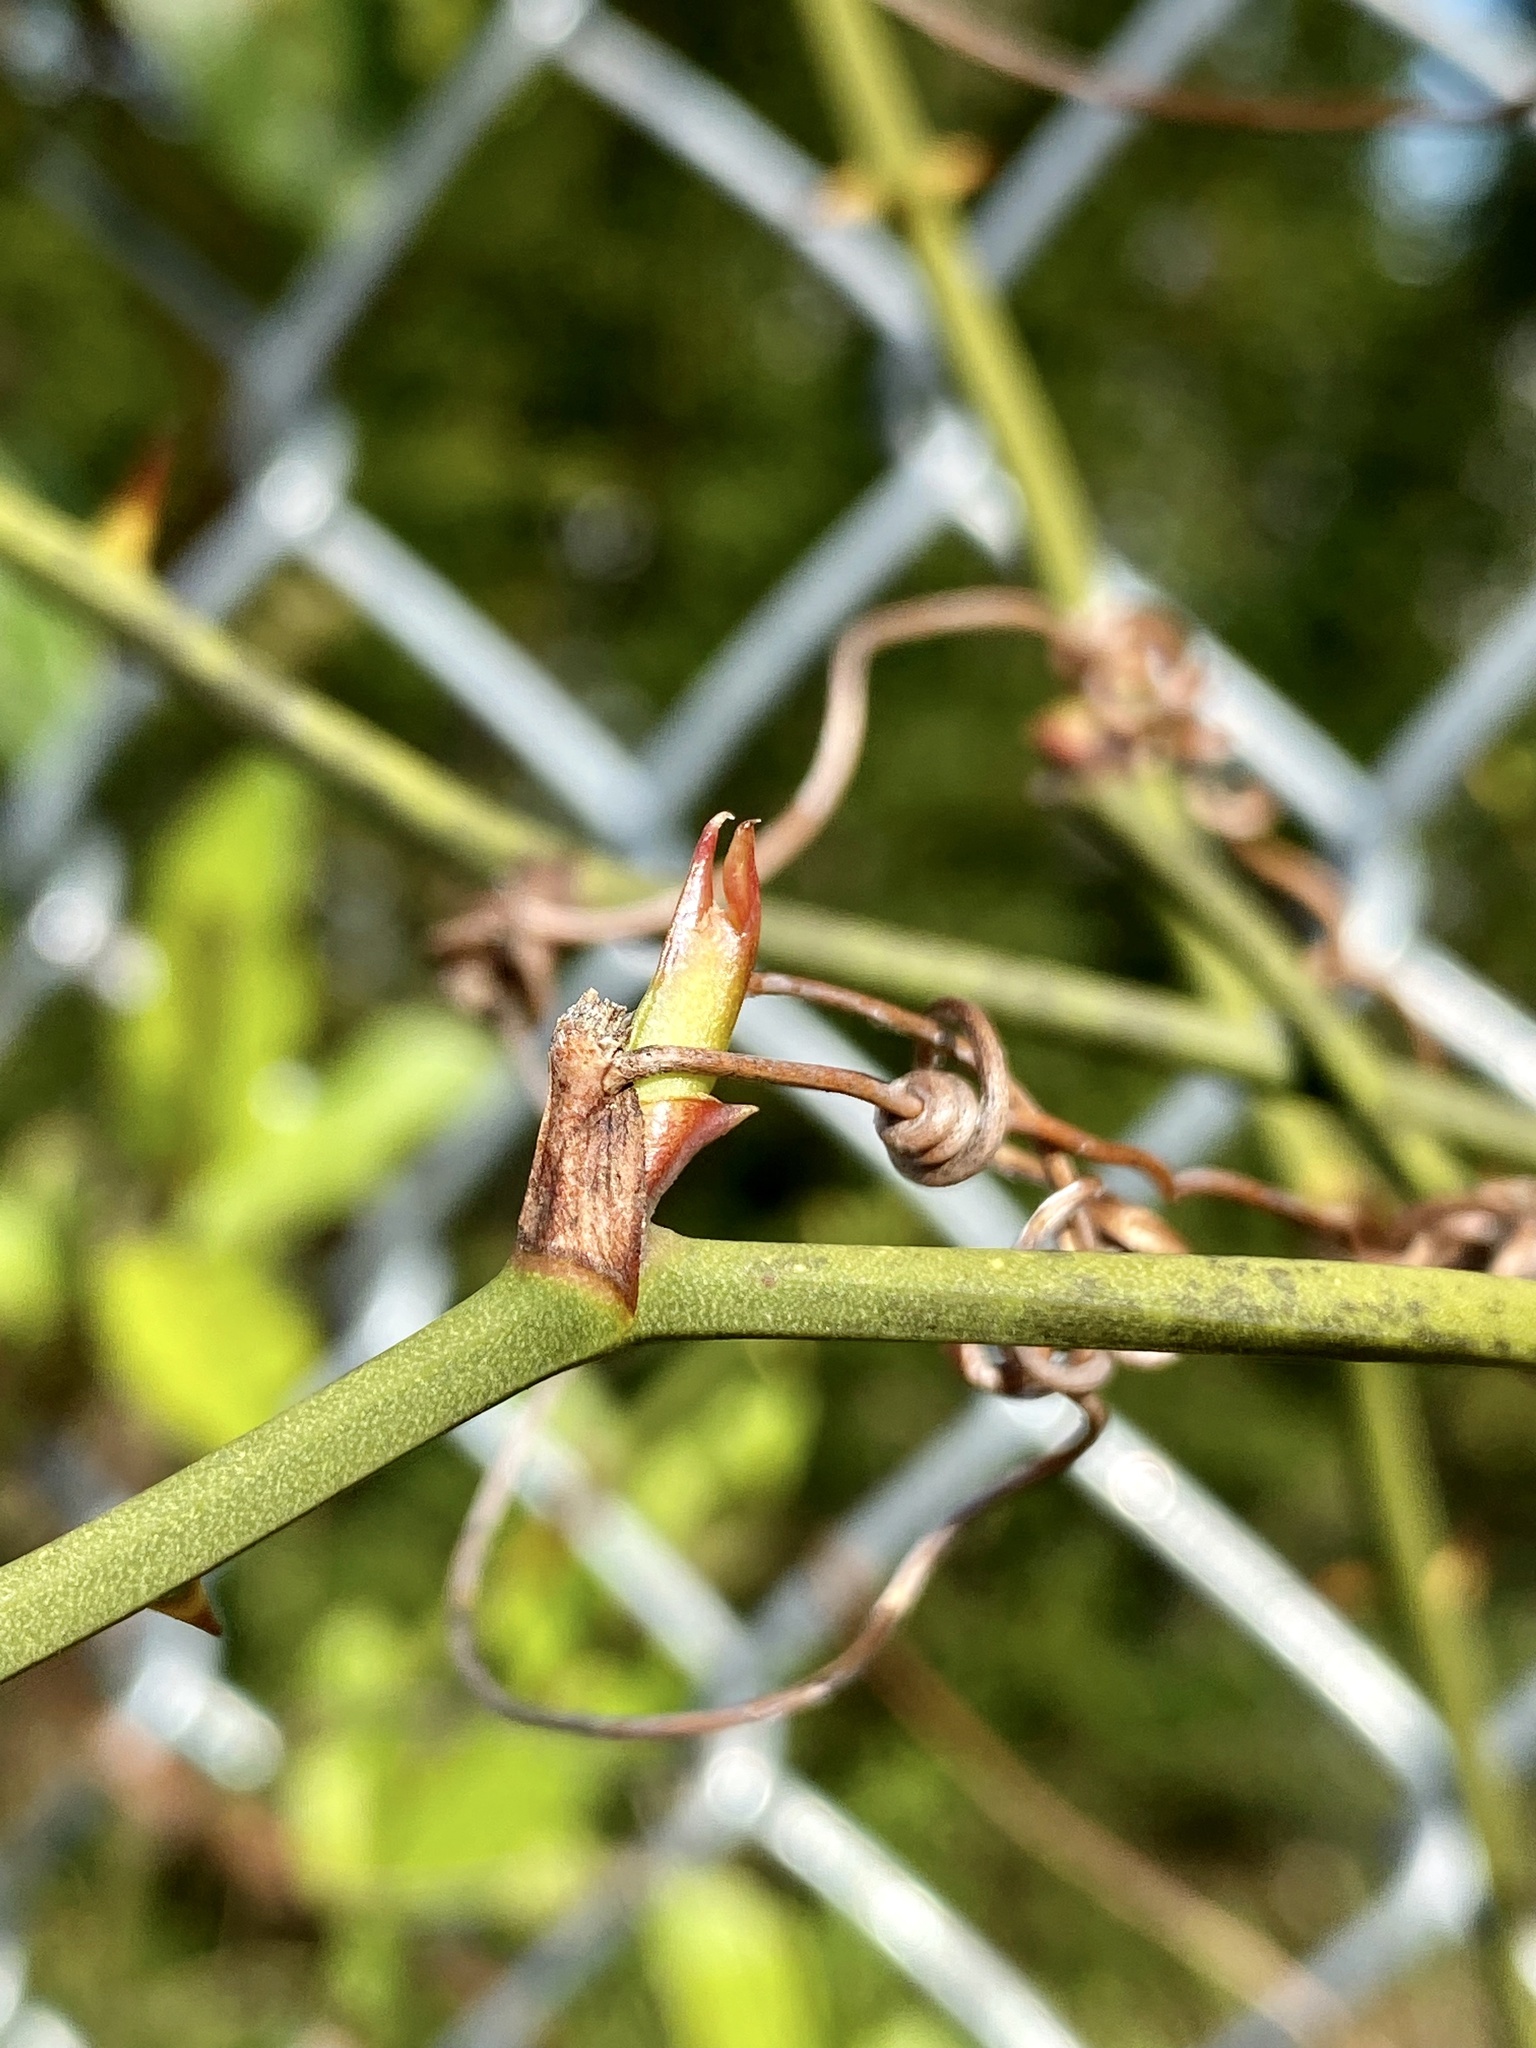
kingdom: Plantae
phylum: Tracheophyta
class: Liliopsida
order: Liliales
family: Smilacaceae
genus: Smilax
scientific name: Smilax rotundifolia
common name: Bullbriar
